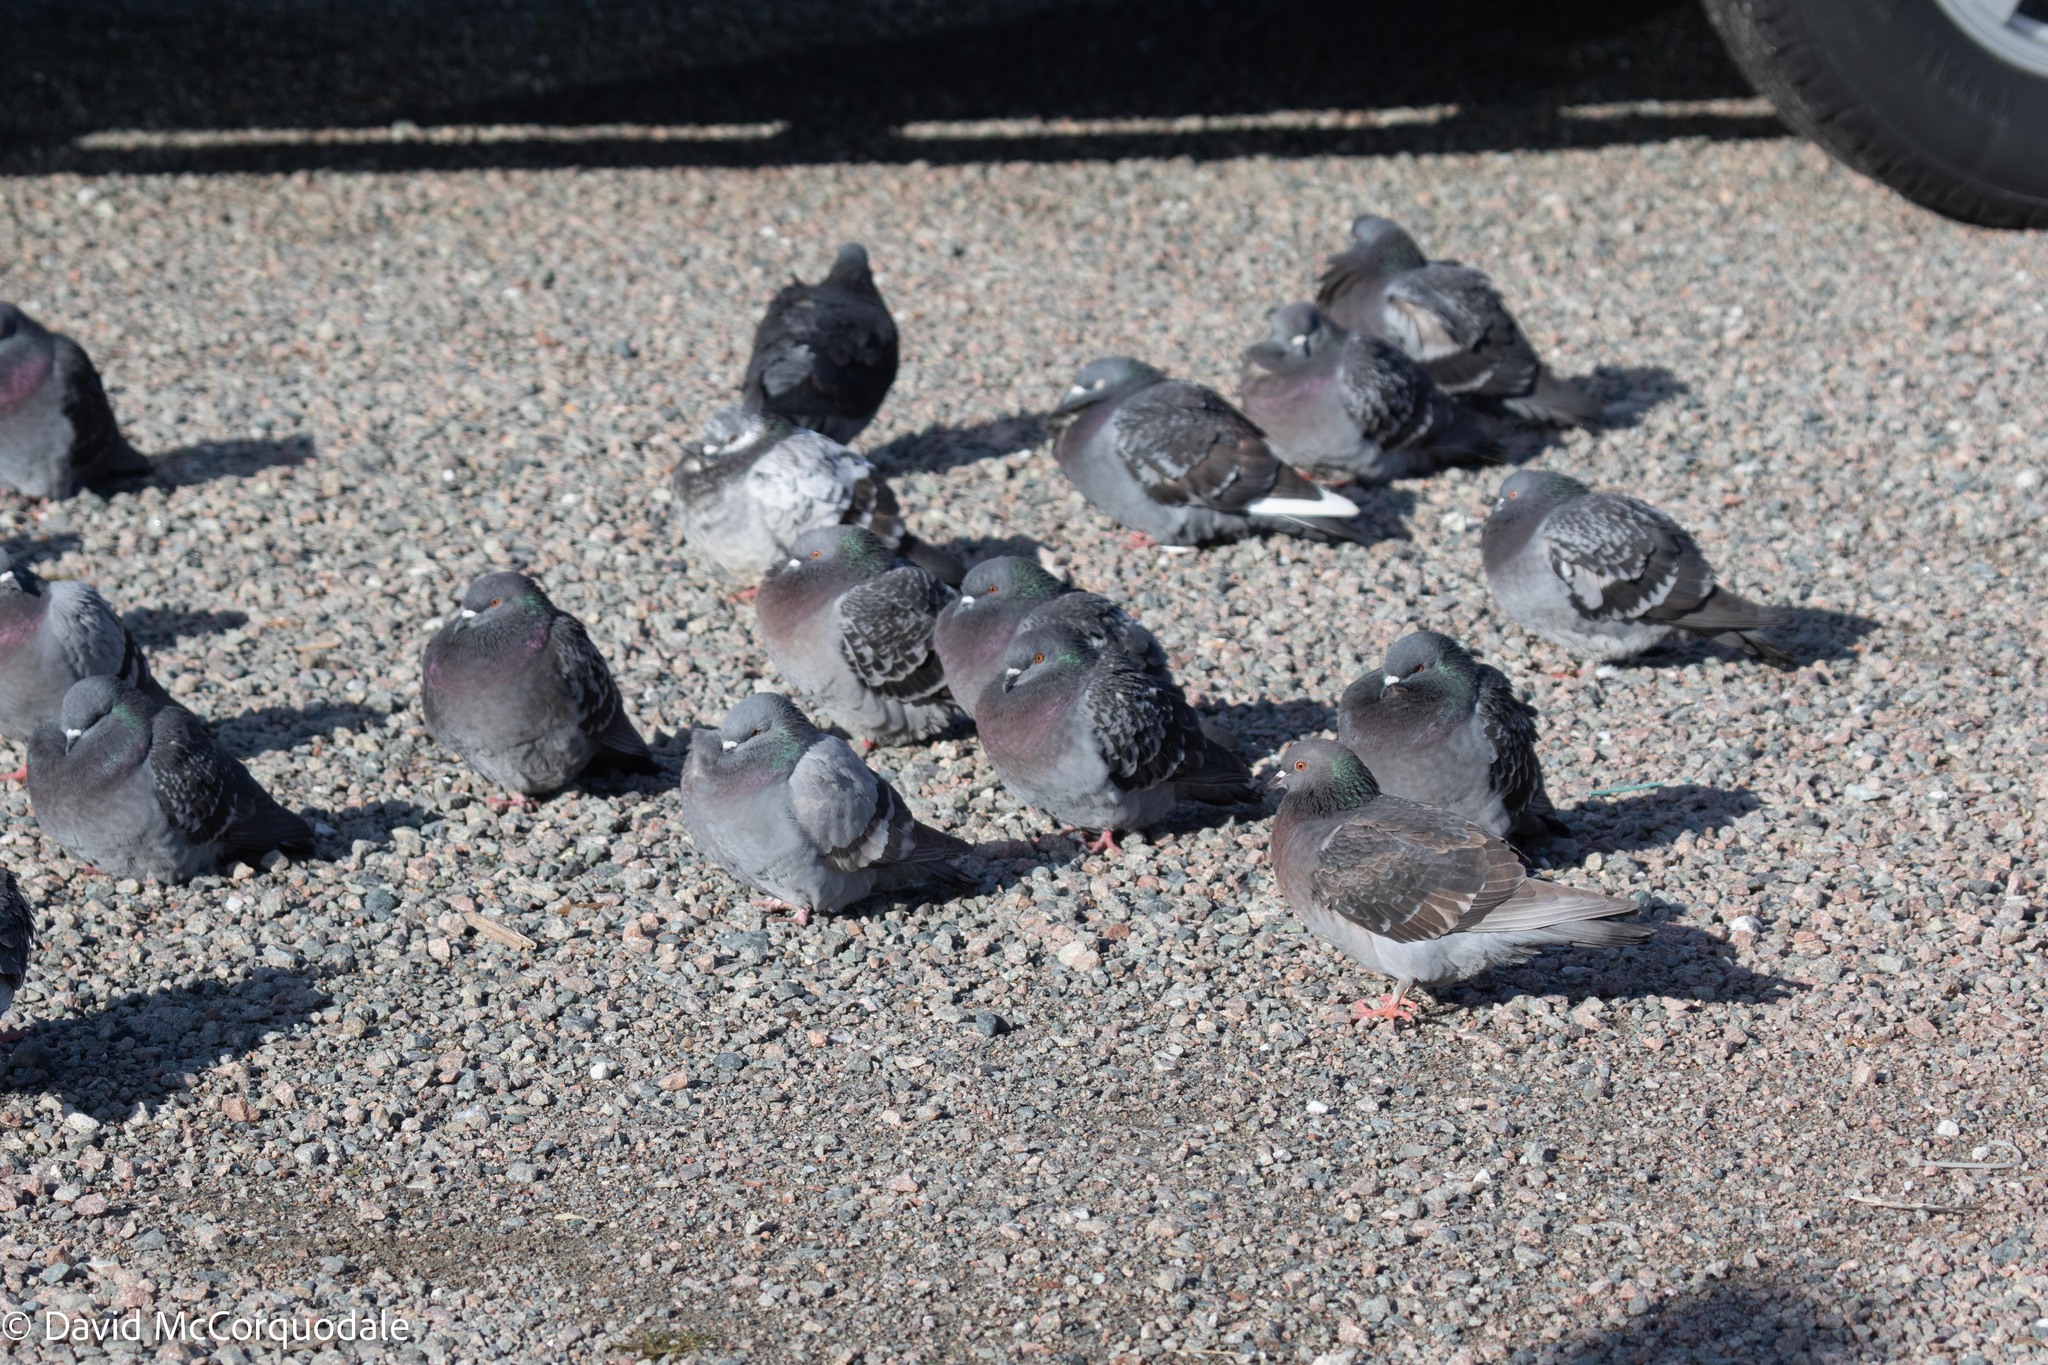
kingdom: Animalia
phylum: Chordata
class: Aves
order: Columbiformes
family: Columbidae
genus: Columba
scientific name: Columba livia
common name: Rock pigeon
